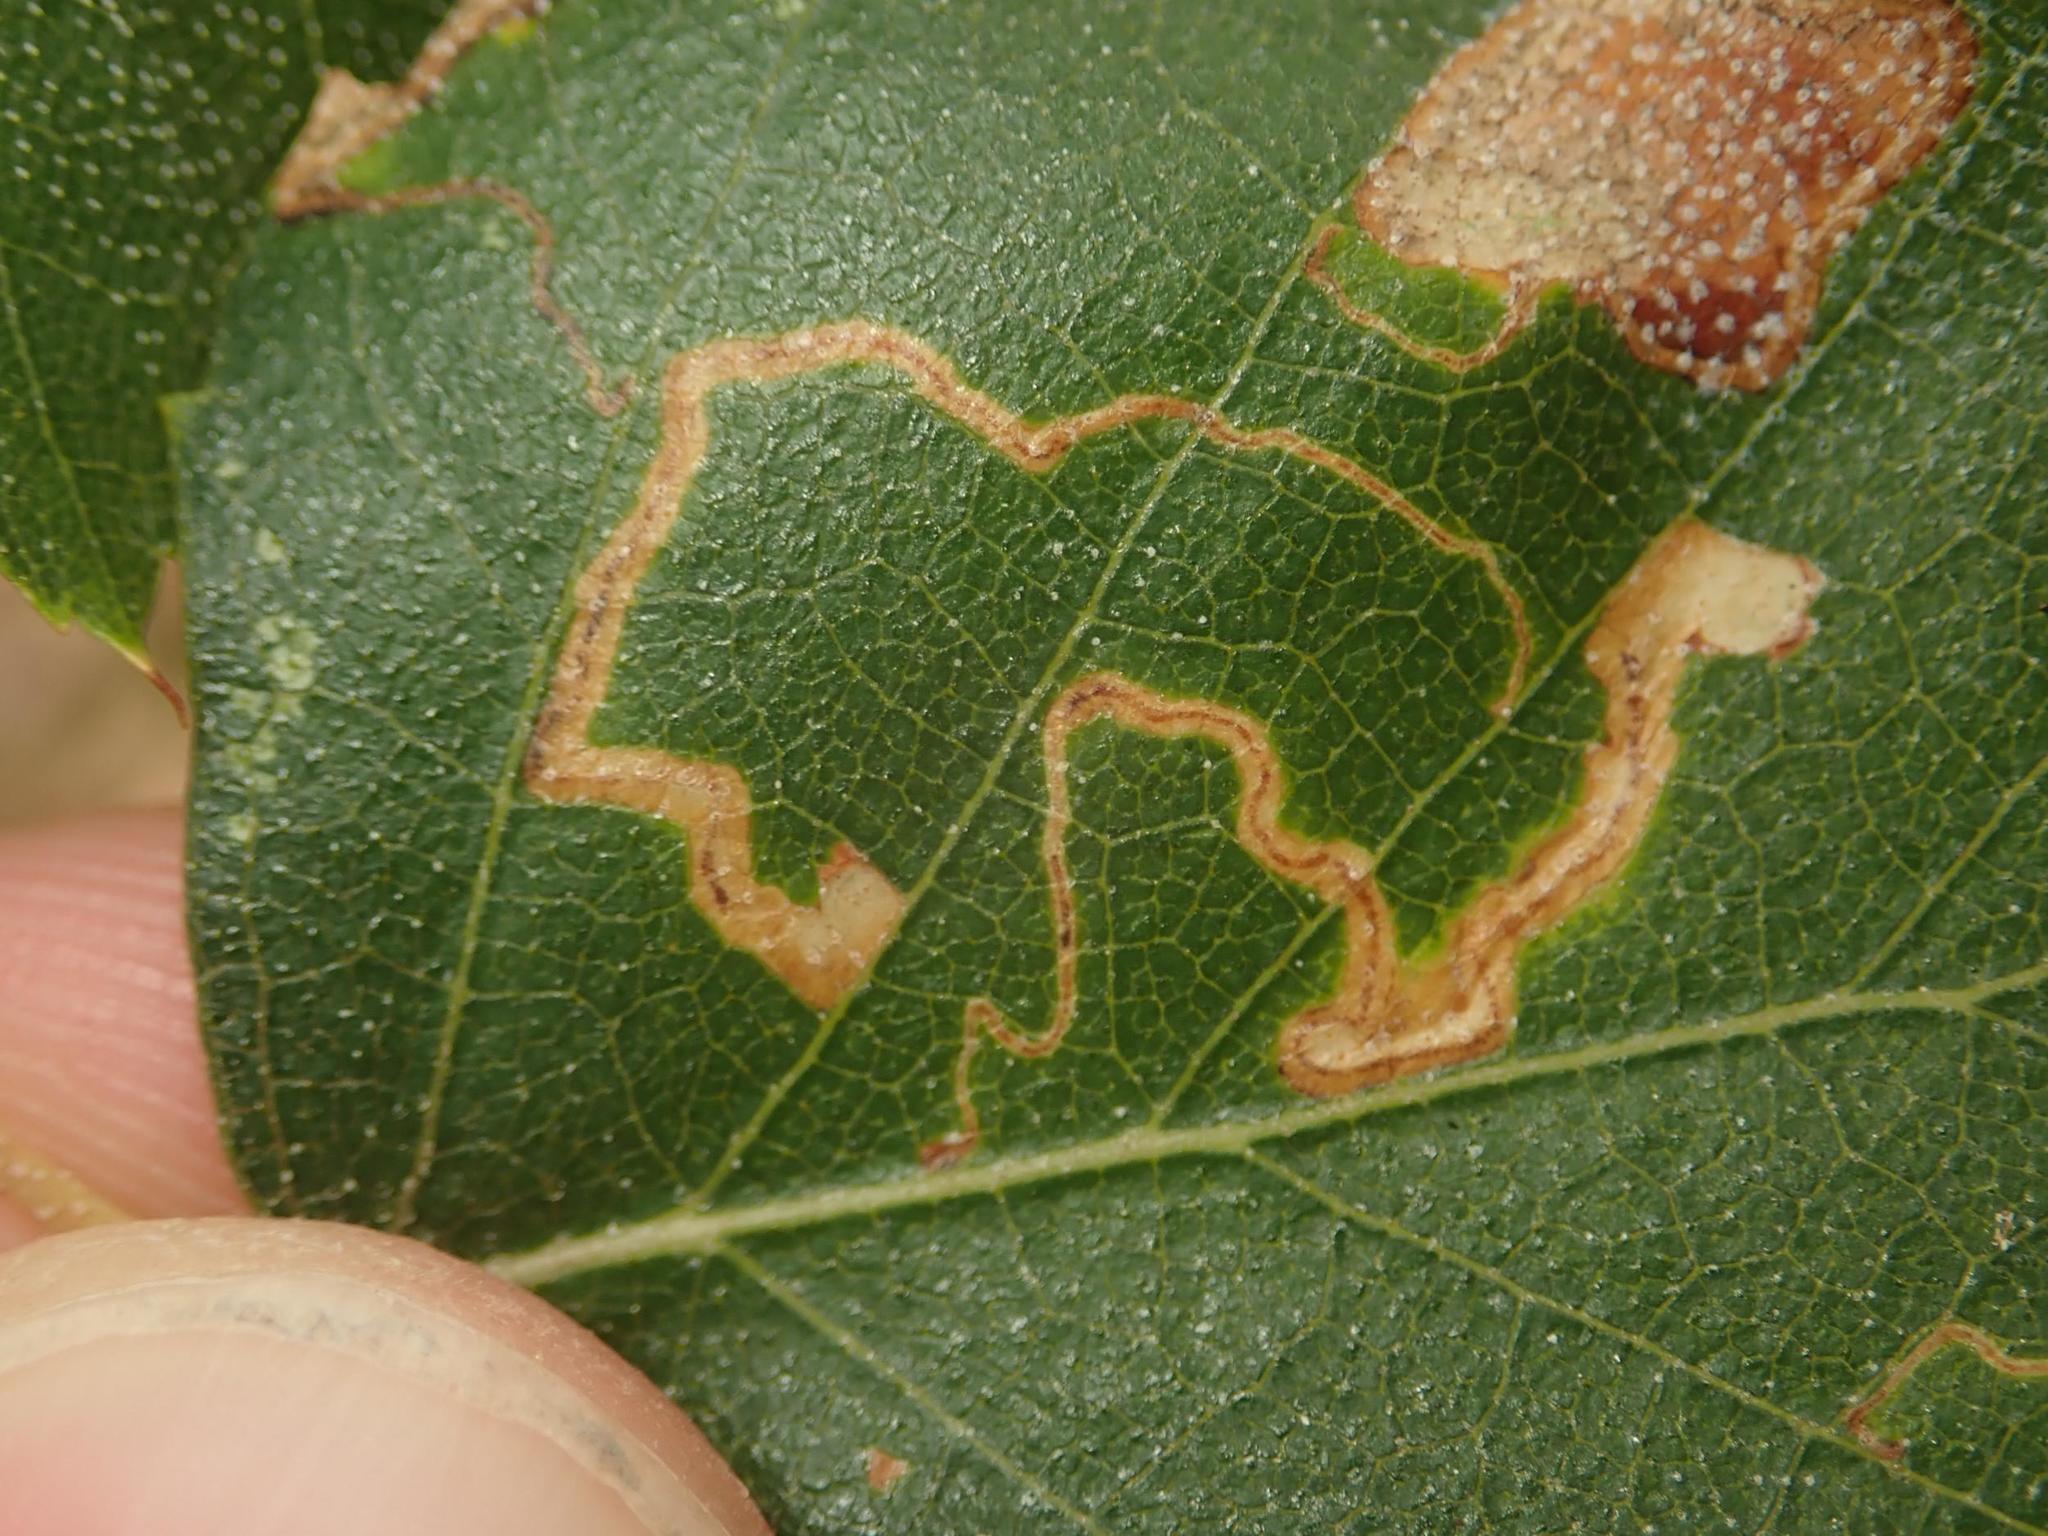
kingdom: Animalia
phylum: Arthropoda
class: Insecta
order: Lepidoptera
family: Nepticulidae
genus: Stigmella
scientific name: Stigmella betulicola
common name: Common birch pigmy
